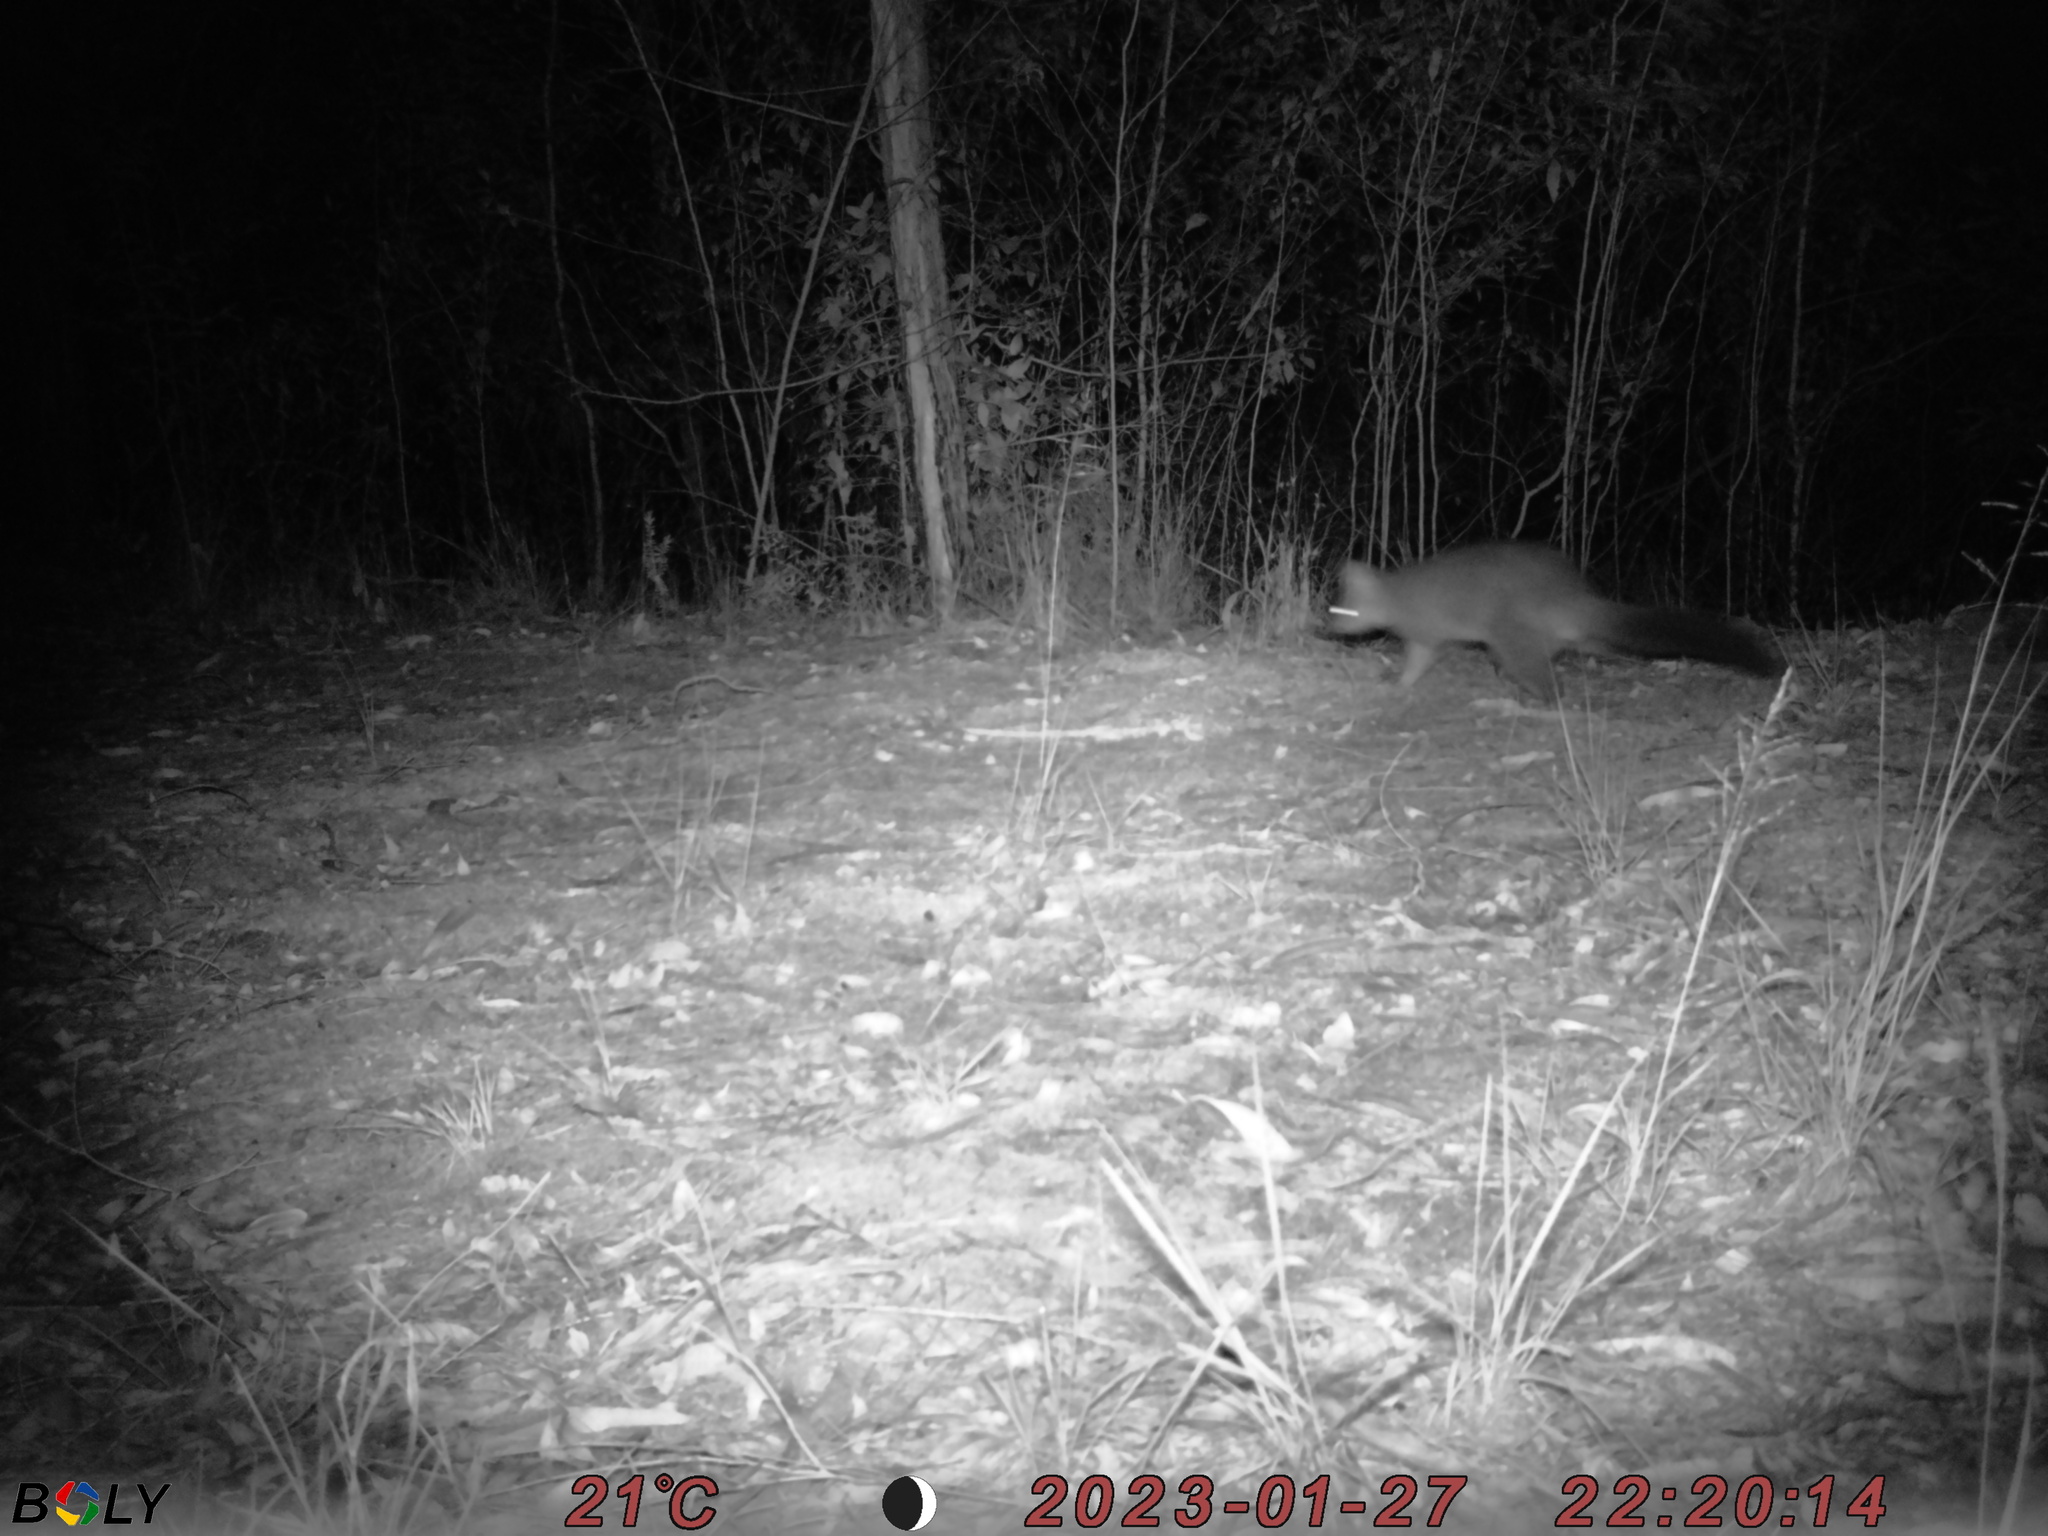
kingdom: Animalia
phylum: Chordata
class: Mammalia
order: Diprotodontia
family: Phalangeridae
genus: Trichosurus
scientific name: Trichosurus vulpecula
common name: Common brushtail
